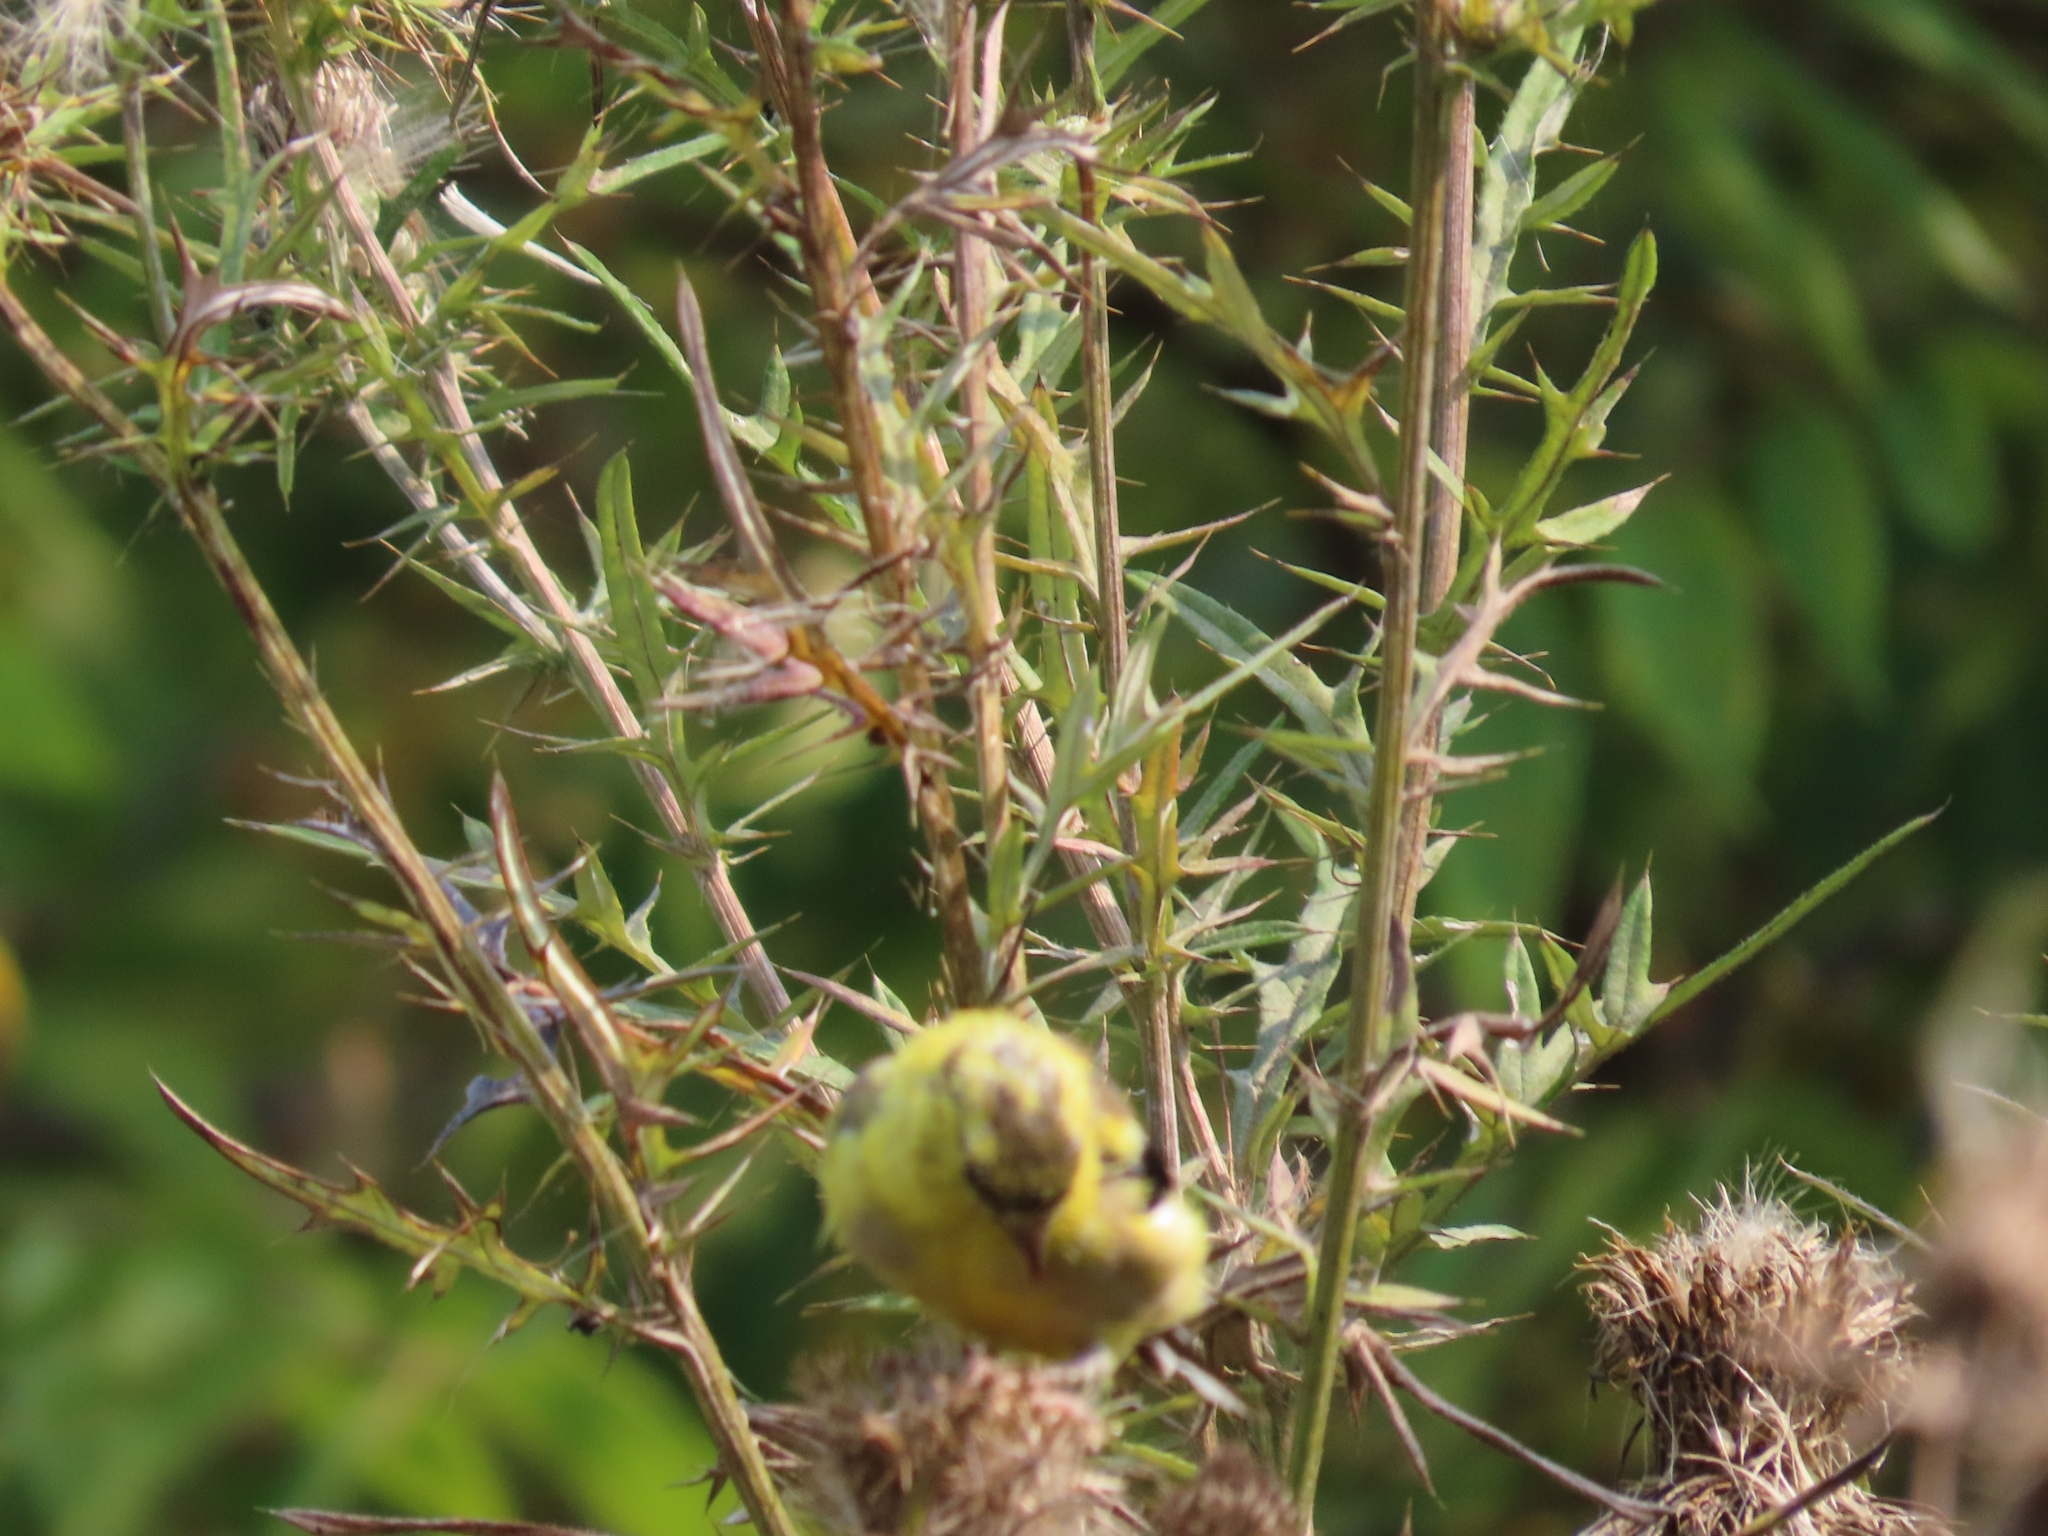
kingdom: Animalia
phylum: Chordata
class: Aves
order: Passeriformes
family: Fringillidae
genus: Spinus
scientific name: Spinus tristis
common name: American goldfinch
